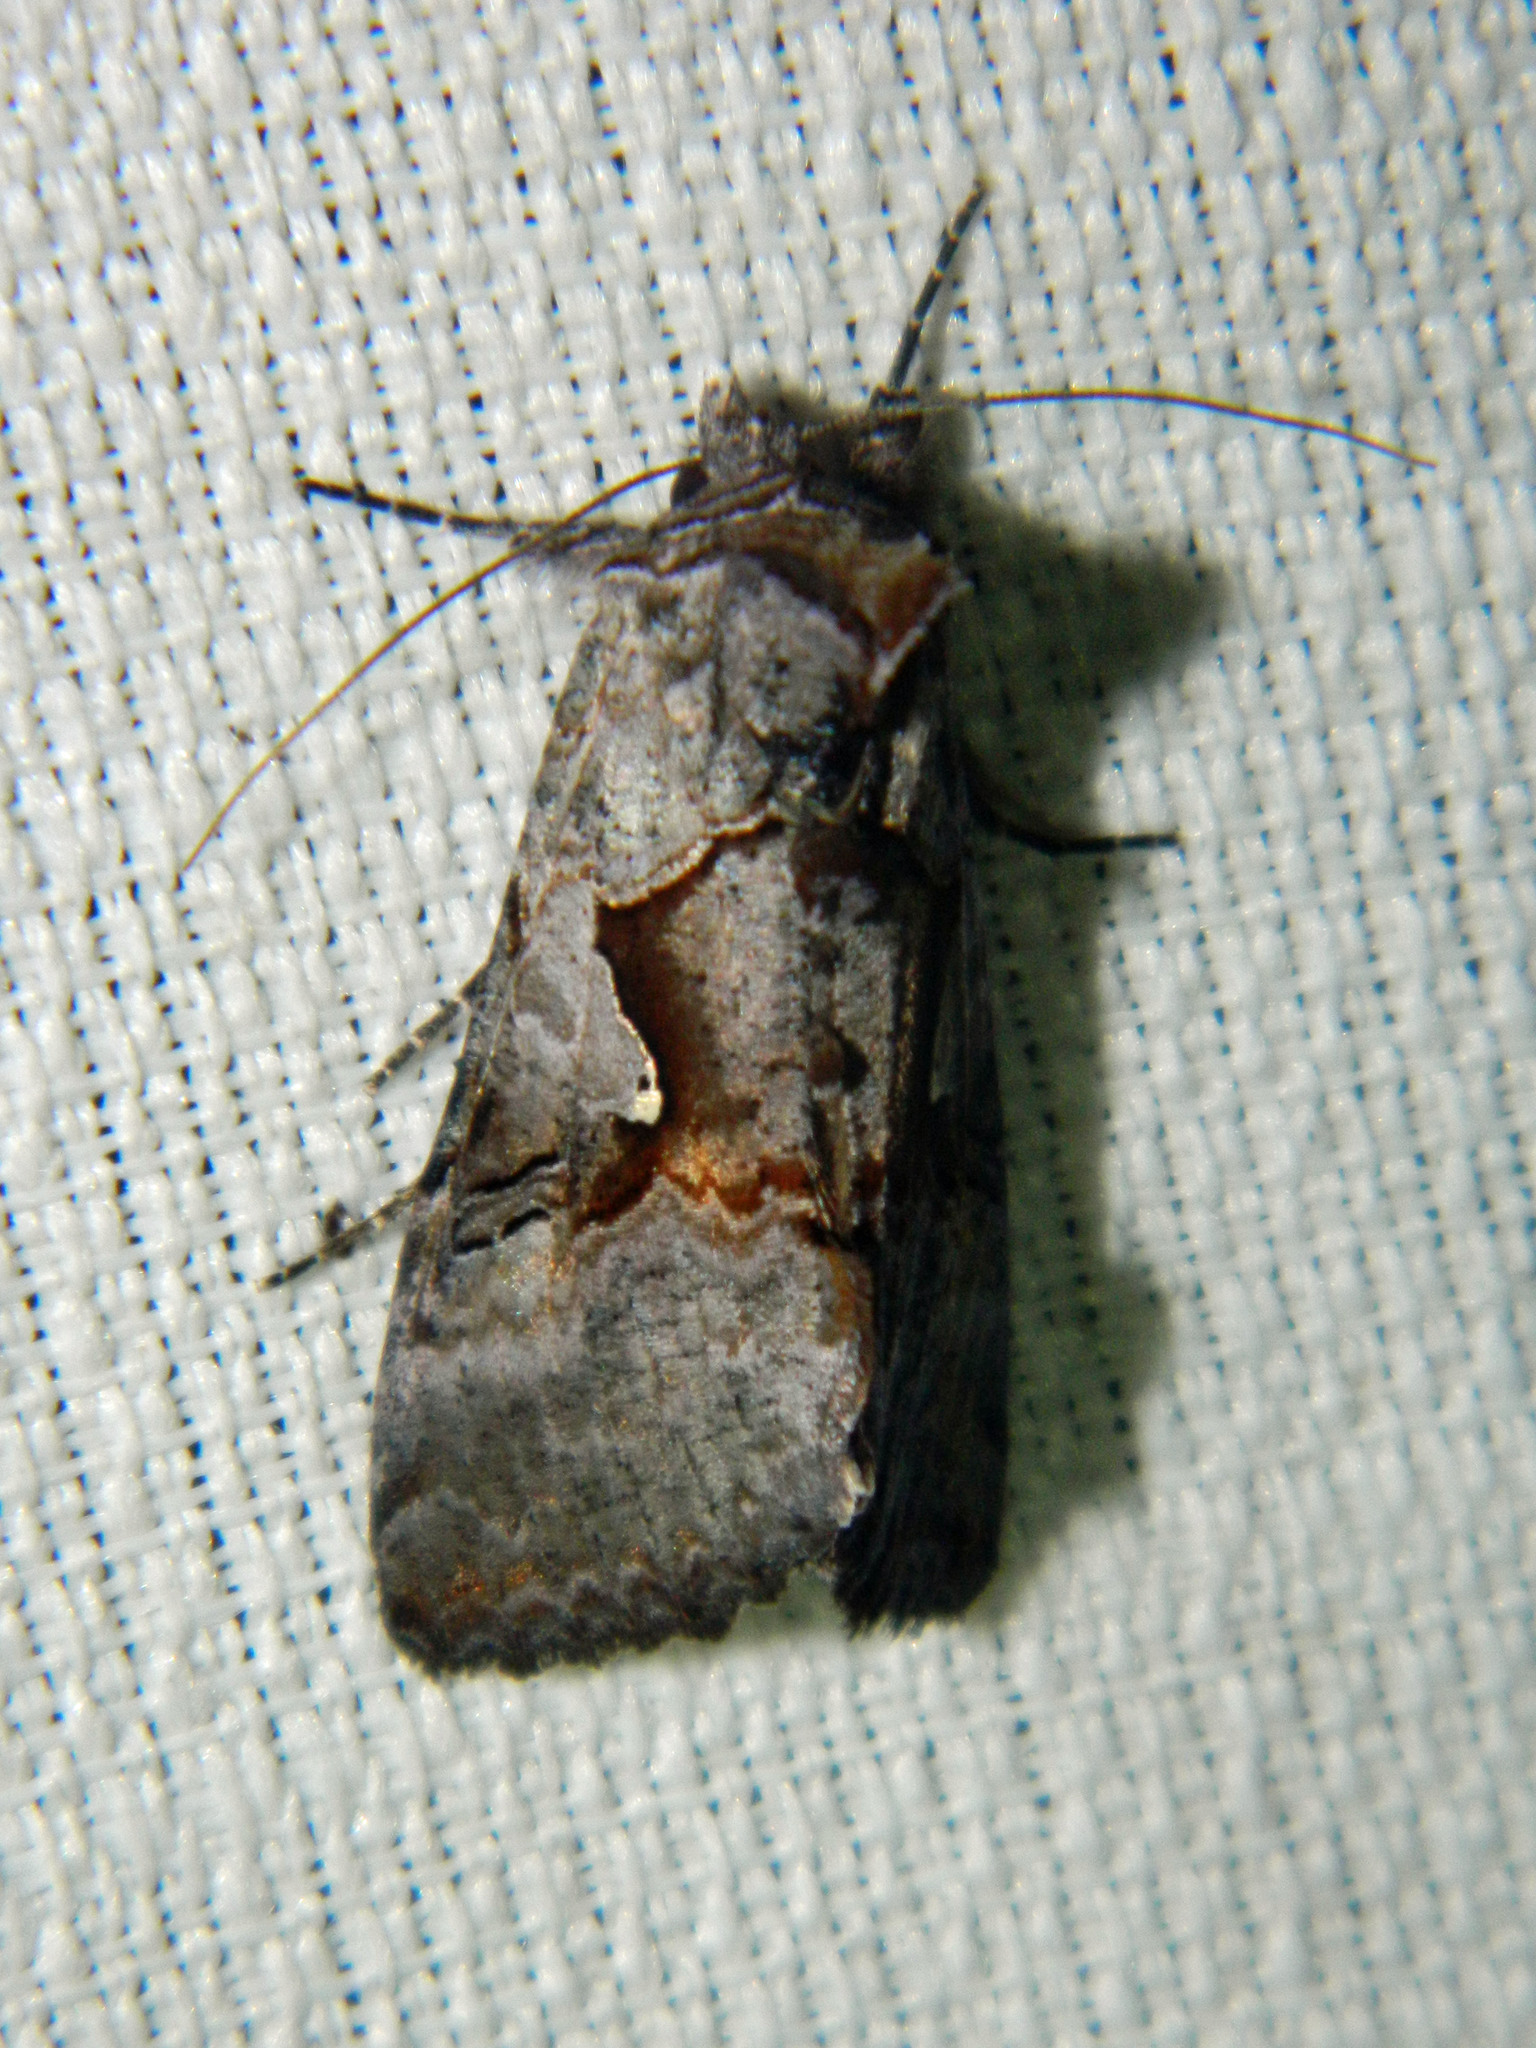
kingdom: Animalia
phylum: Arthropoda
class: Insecta
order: Lepidoptera
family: Noctuidae
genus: Syngrapha
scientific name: Syngrapha epigaea
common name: Epigaea looper moth
